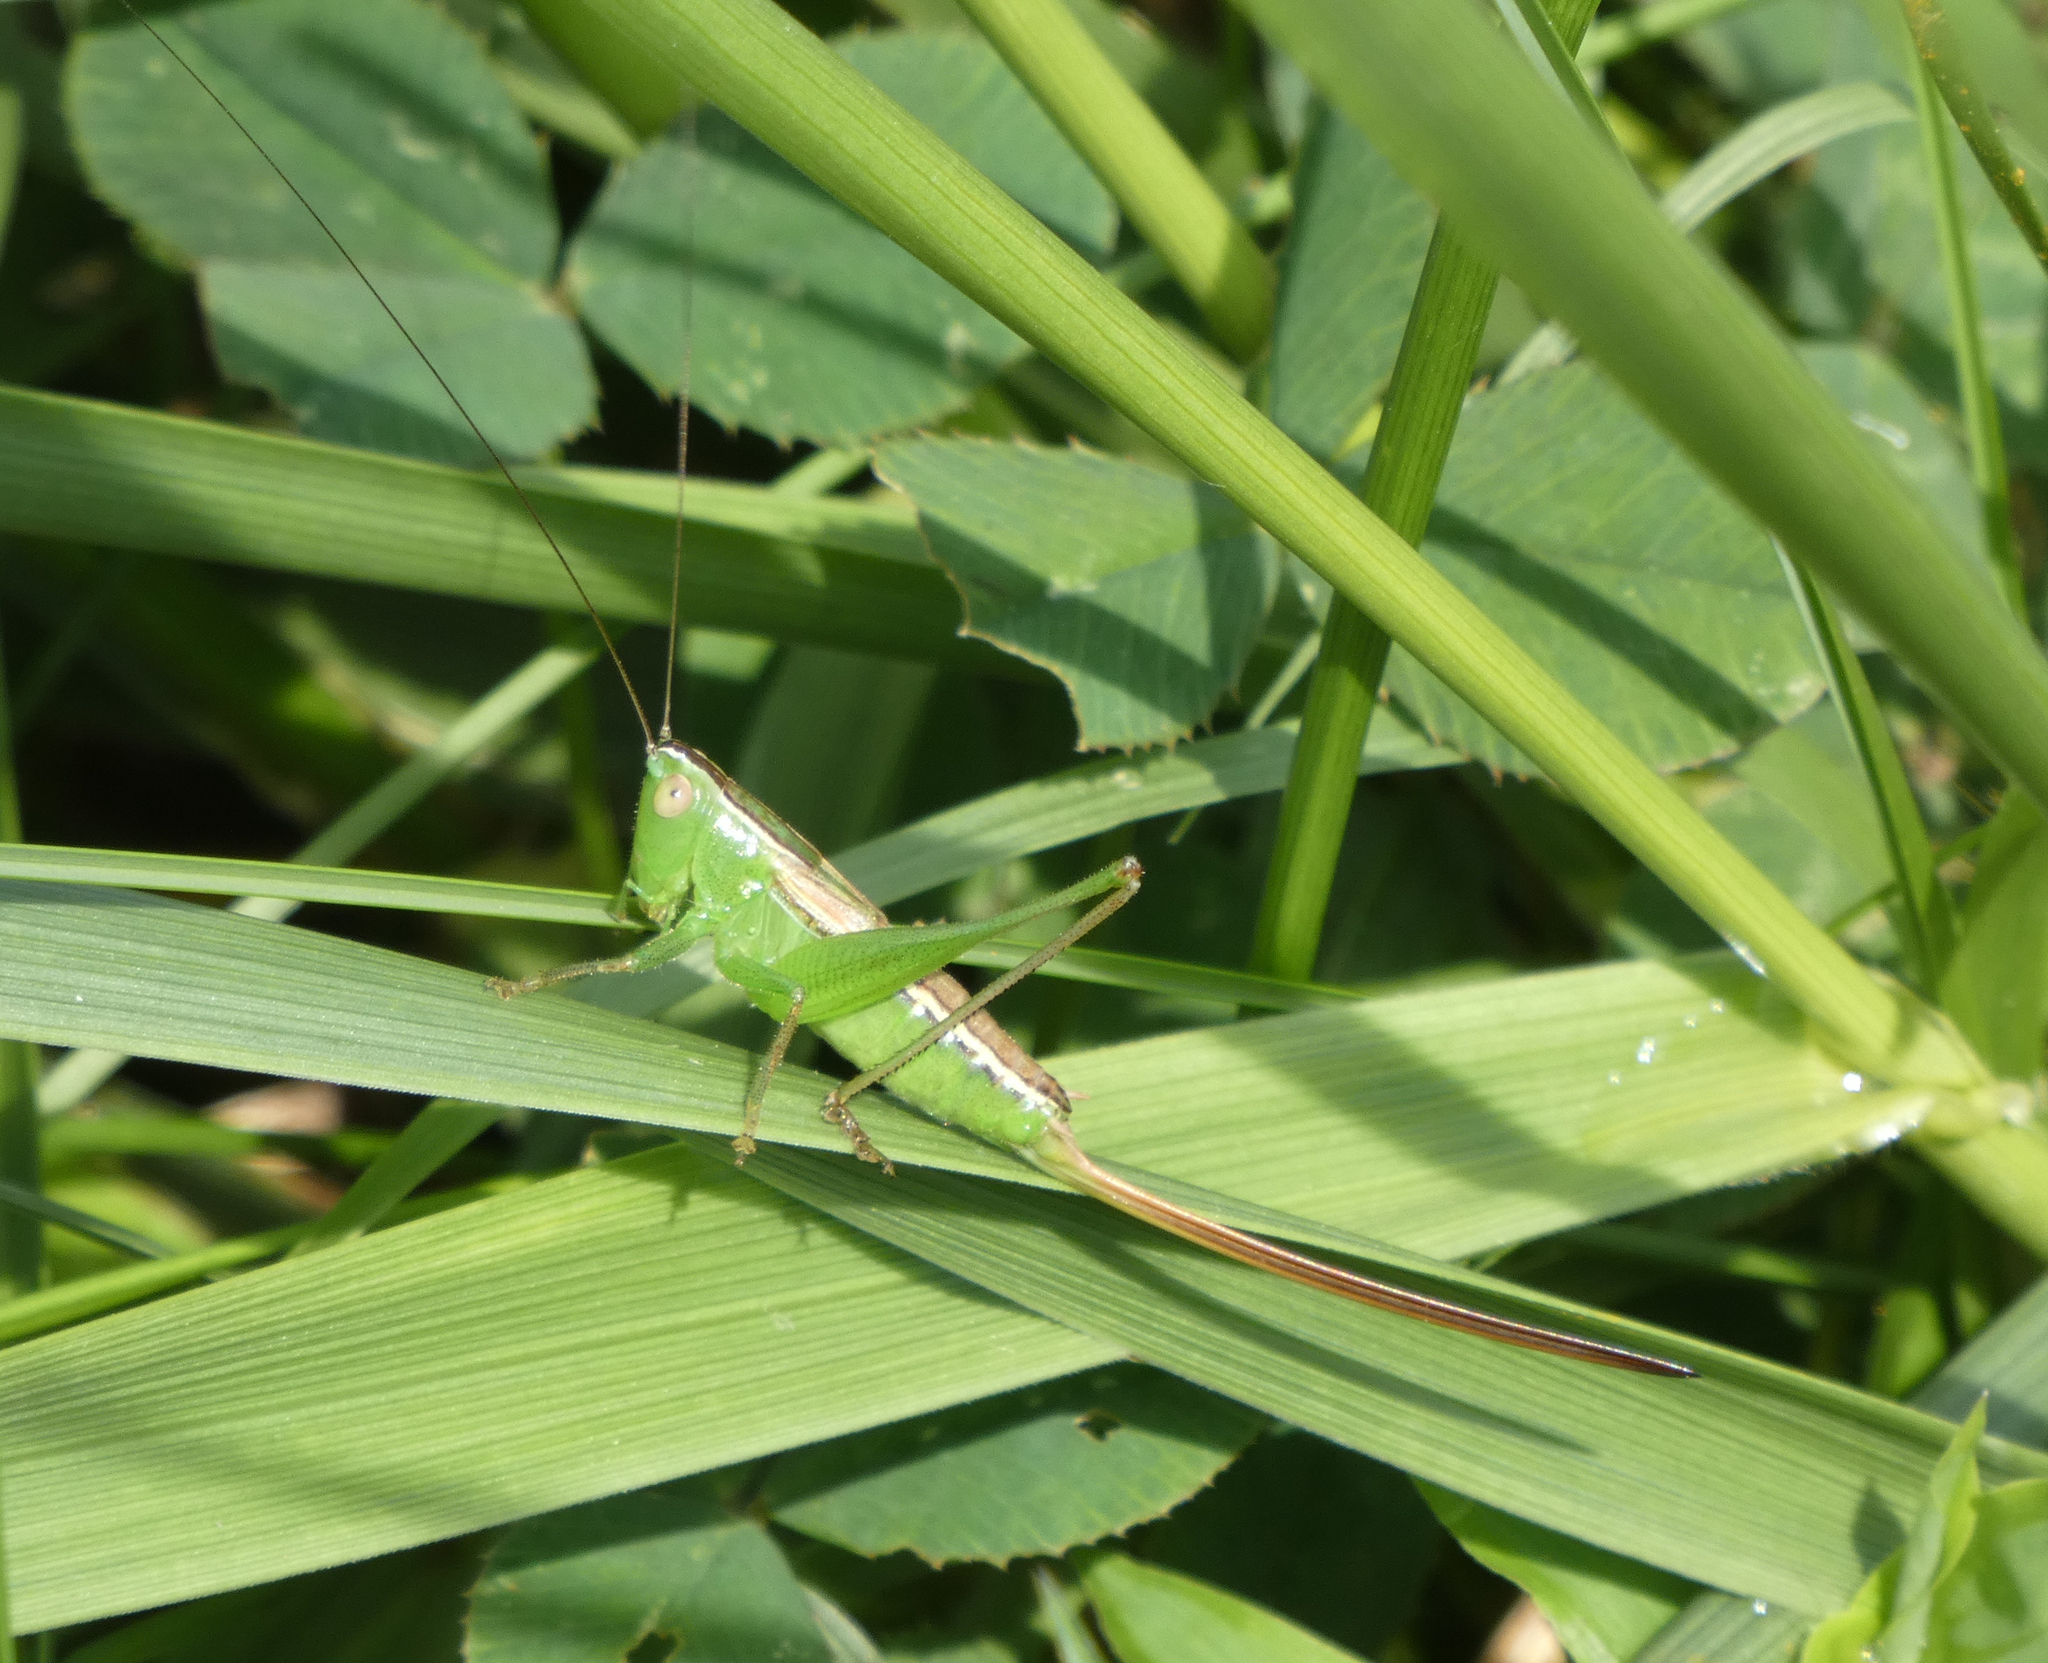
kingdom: Animalia
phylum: Arthropoda
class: Insecta
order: Orthoptera
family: Tettigoniidae
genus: Conocephalus
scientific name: Conocephalus strictus
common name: Straight-lanced katydid
